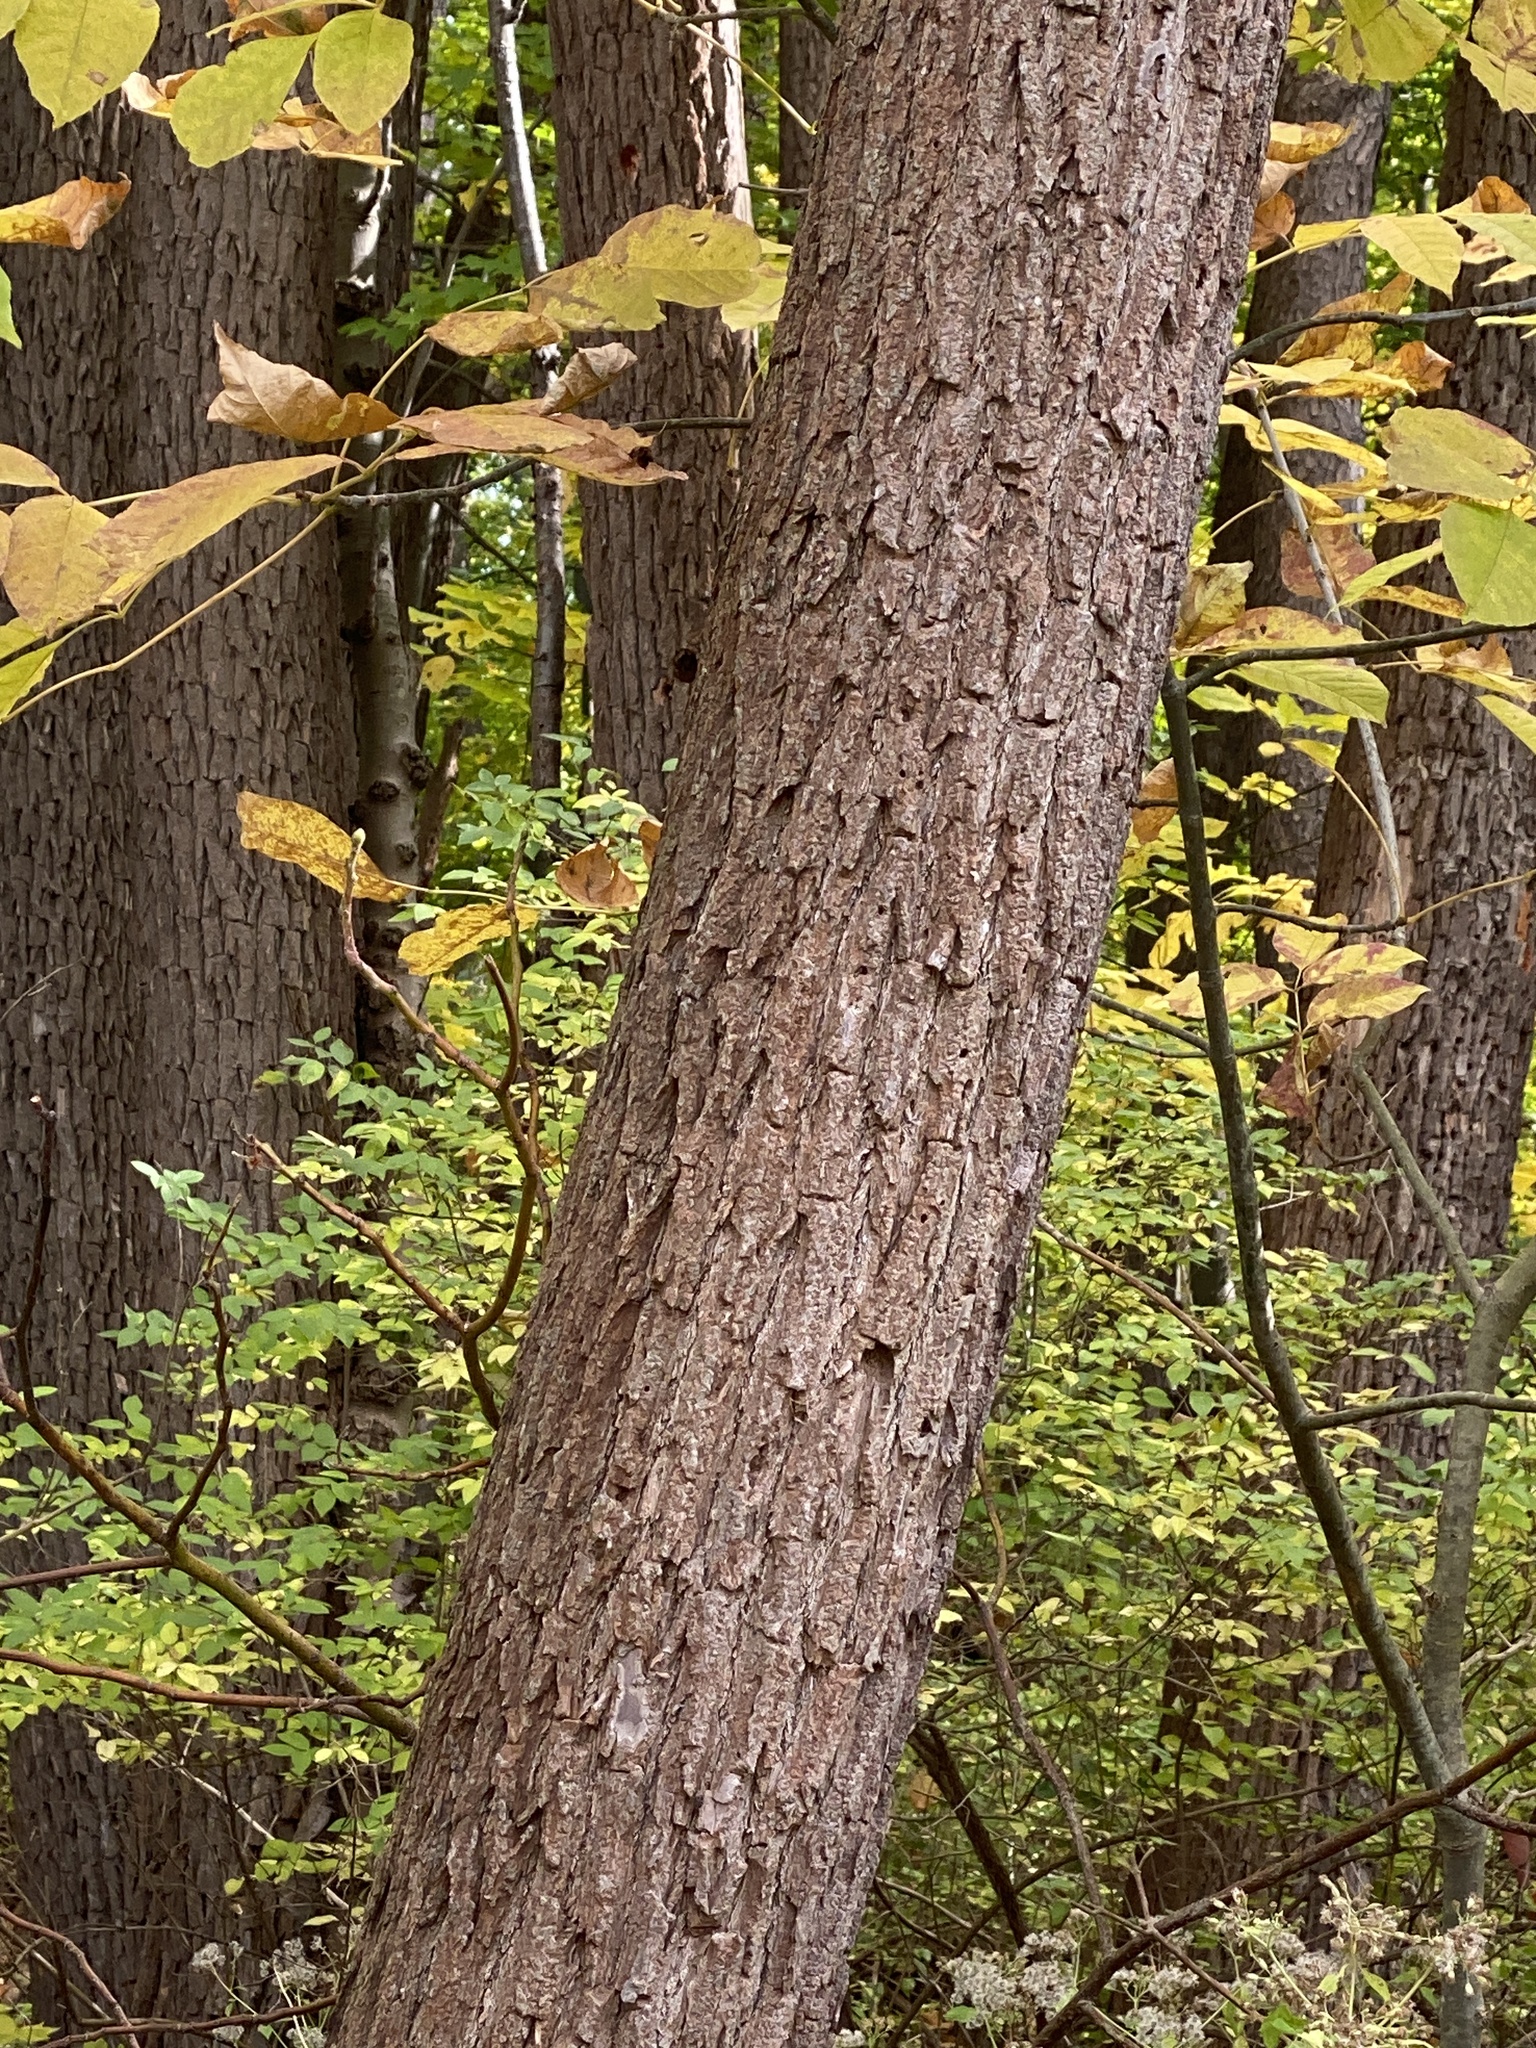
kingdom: Plantae
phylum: Tracheophyta
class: Magnoliopsida
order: Laurales
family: Lauraceae
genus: Sassafras
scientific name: Sassafras albidum
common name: Sassafras
